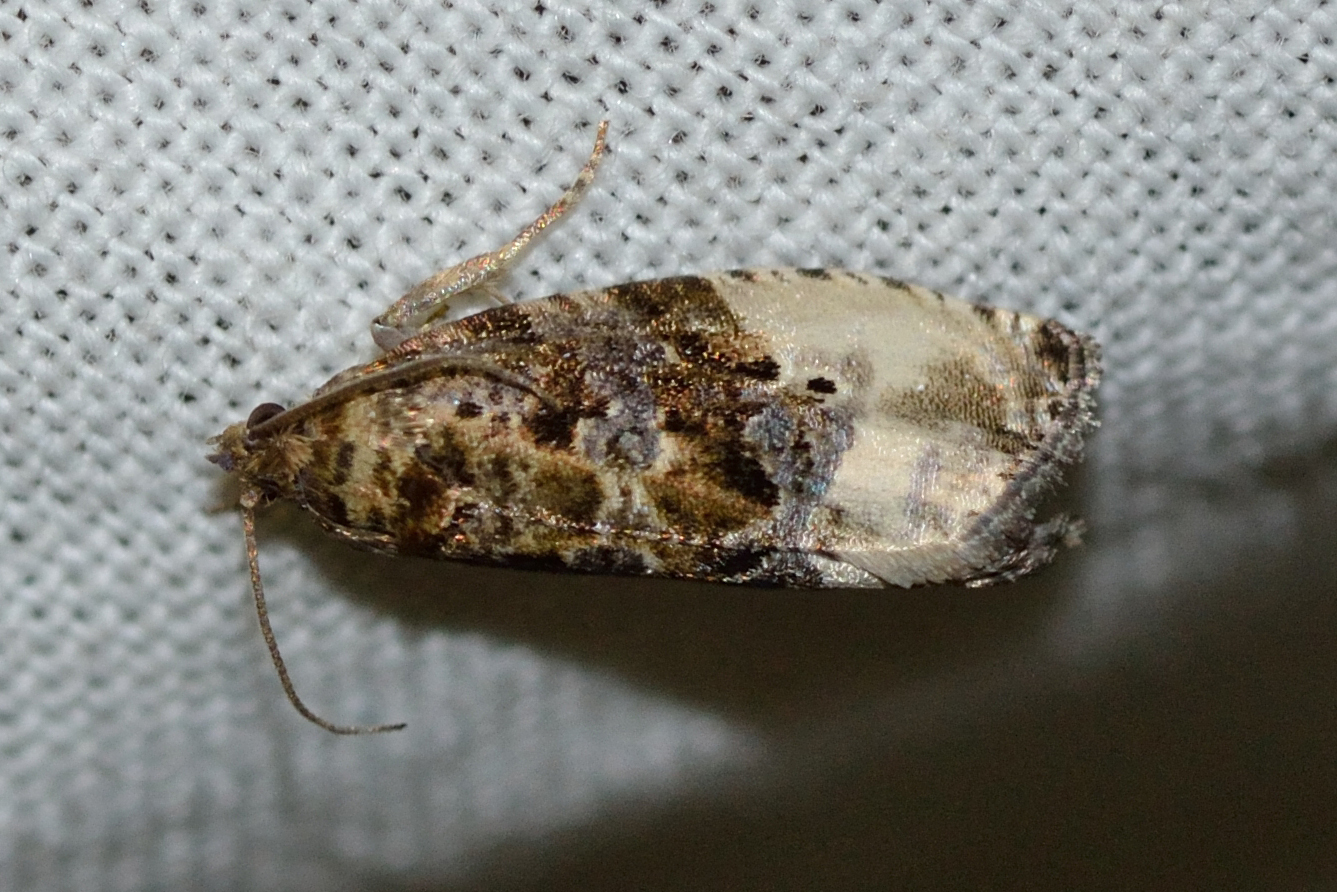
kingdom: Animalia
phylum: Arthropoda
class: Insecta
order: Lepidoptera
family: Tortricidae
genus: Hedya
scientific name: Hedya nubiferana
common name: Marbled orchard tortrix
